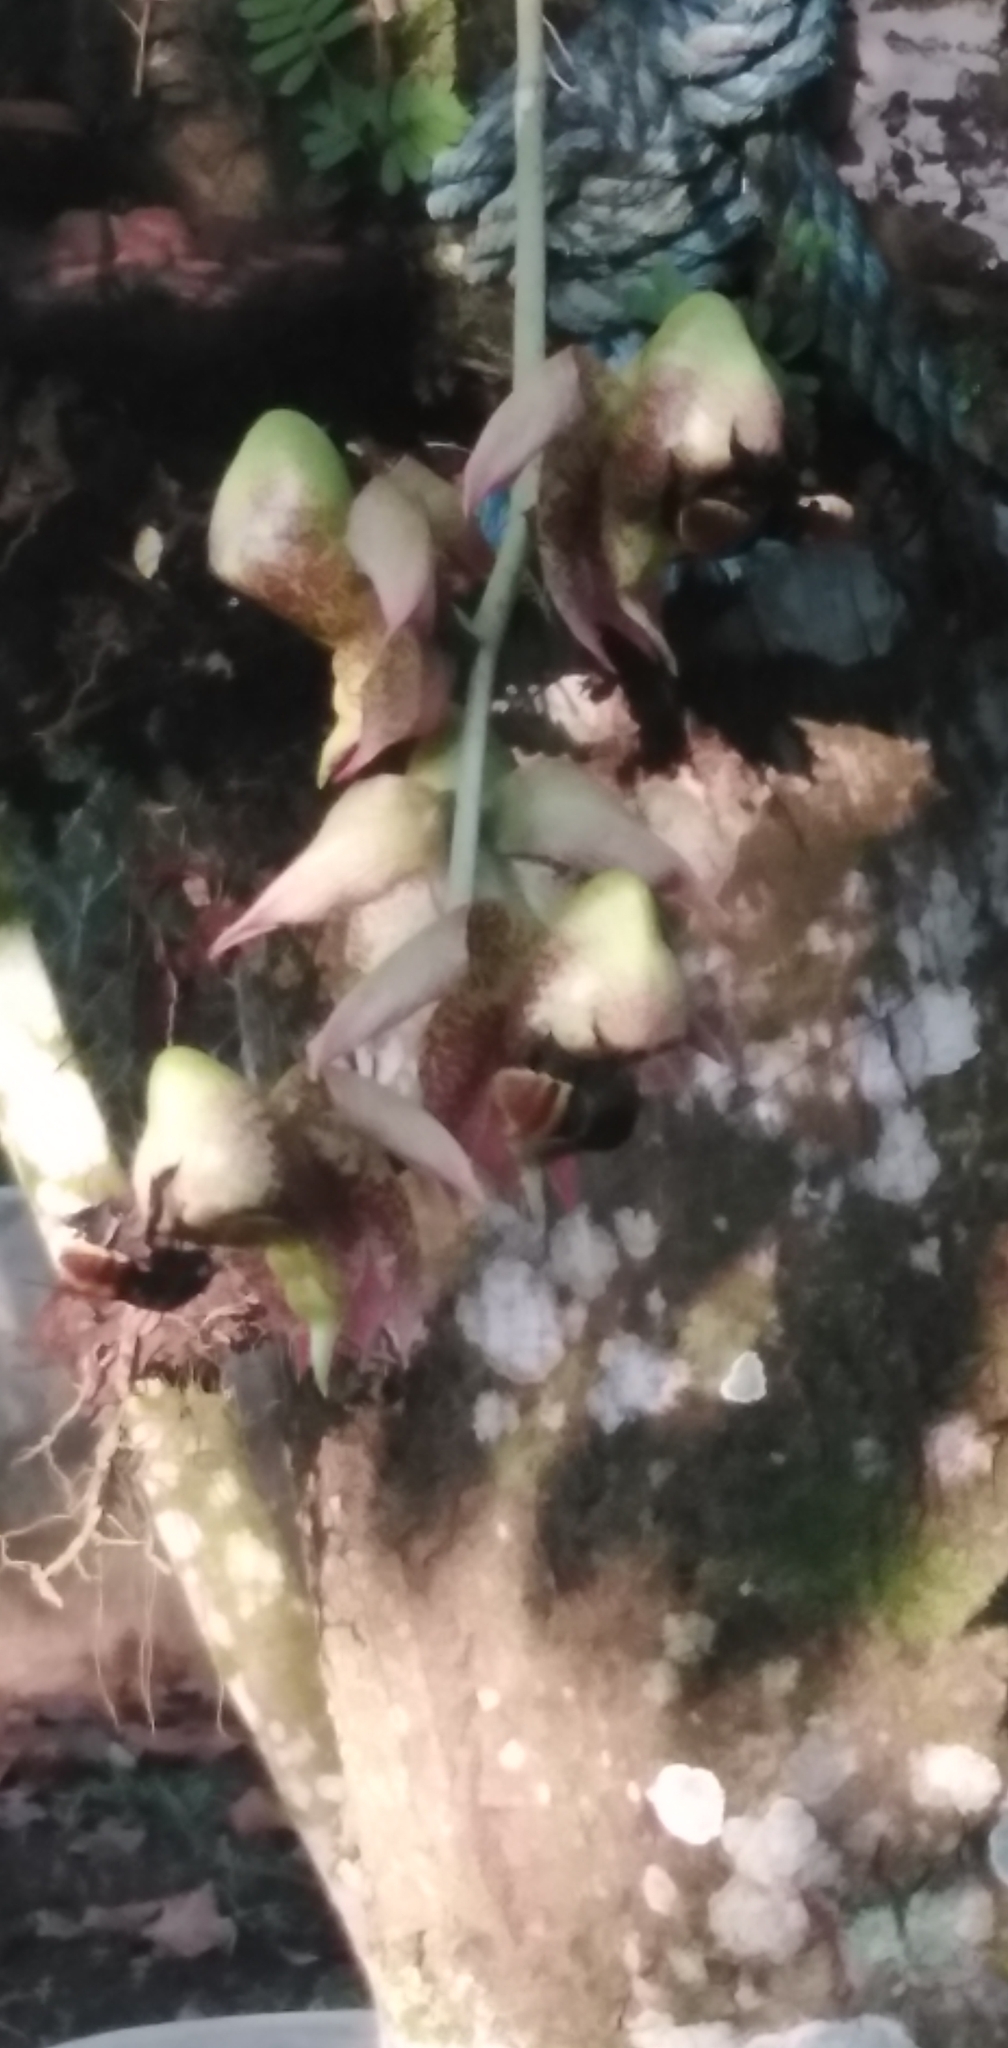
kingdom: Animalia
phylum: Arthropoda
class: Insecta
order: Hymenoptera
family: Apidae
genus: Eulaema
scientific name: Eulaema cingulata
